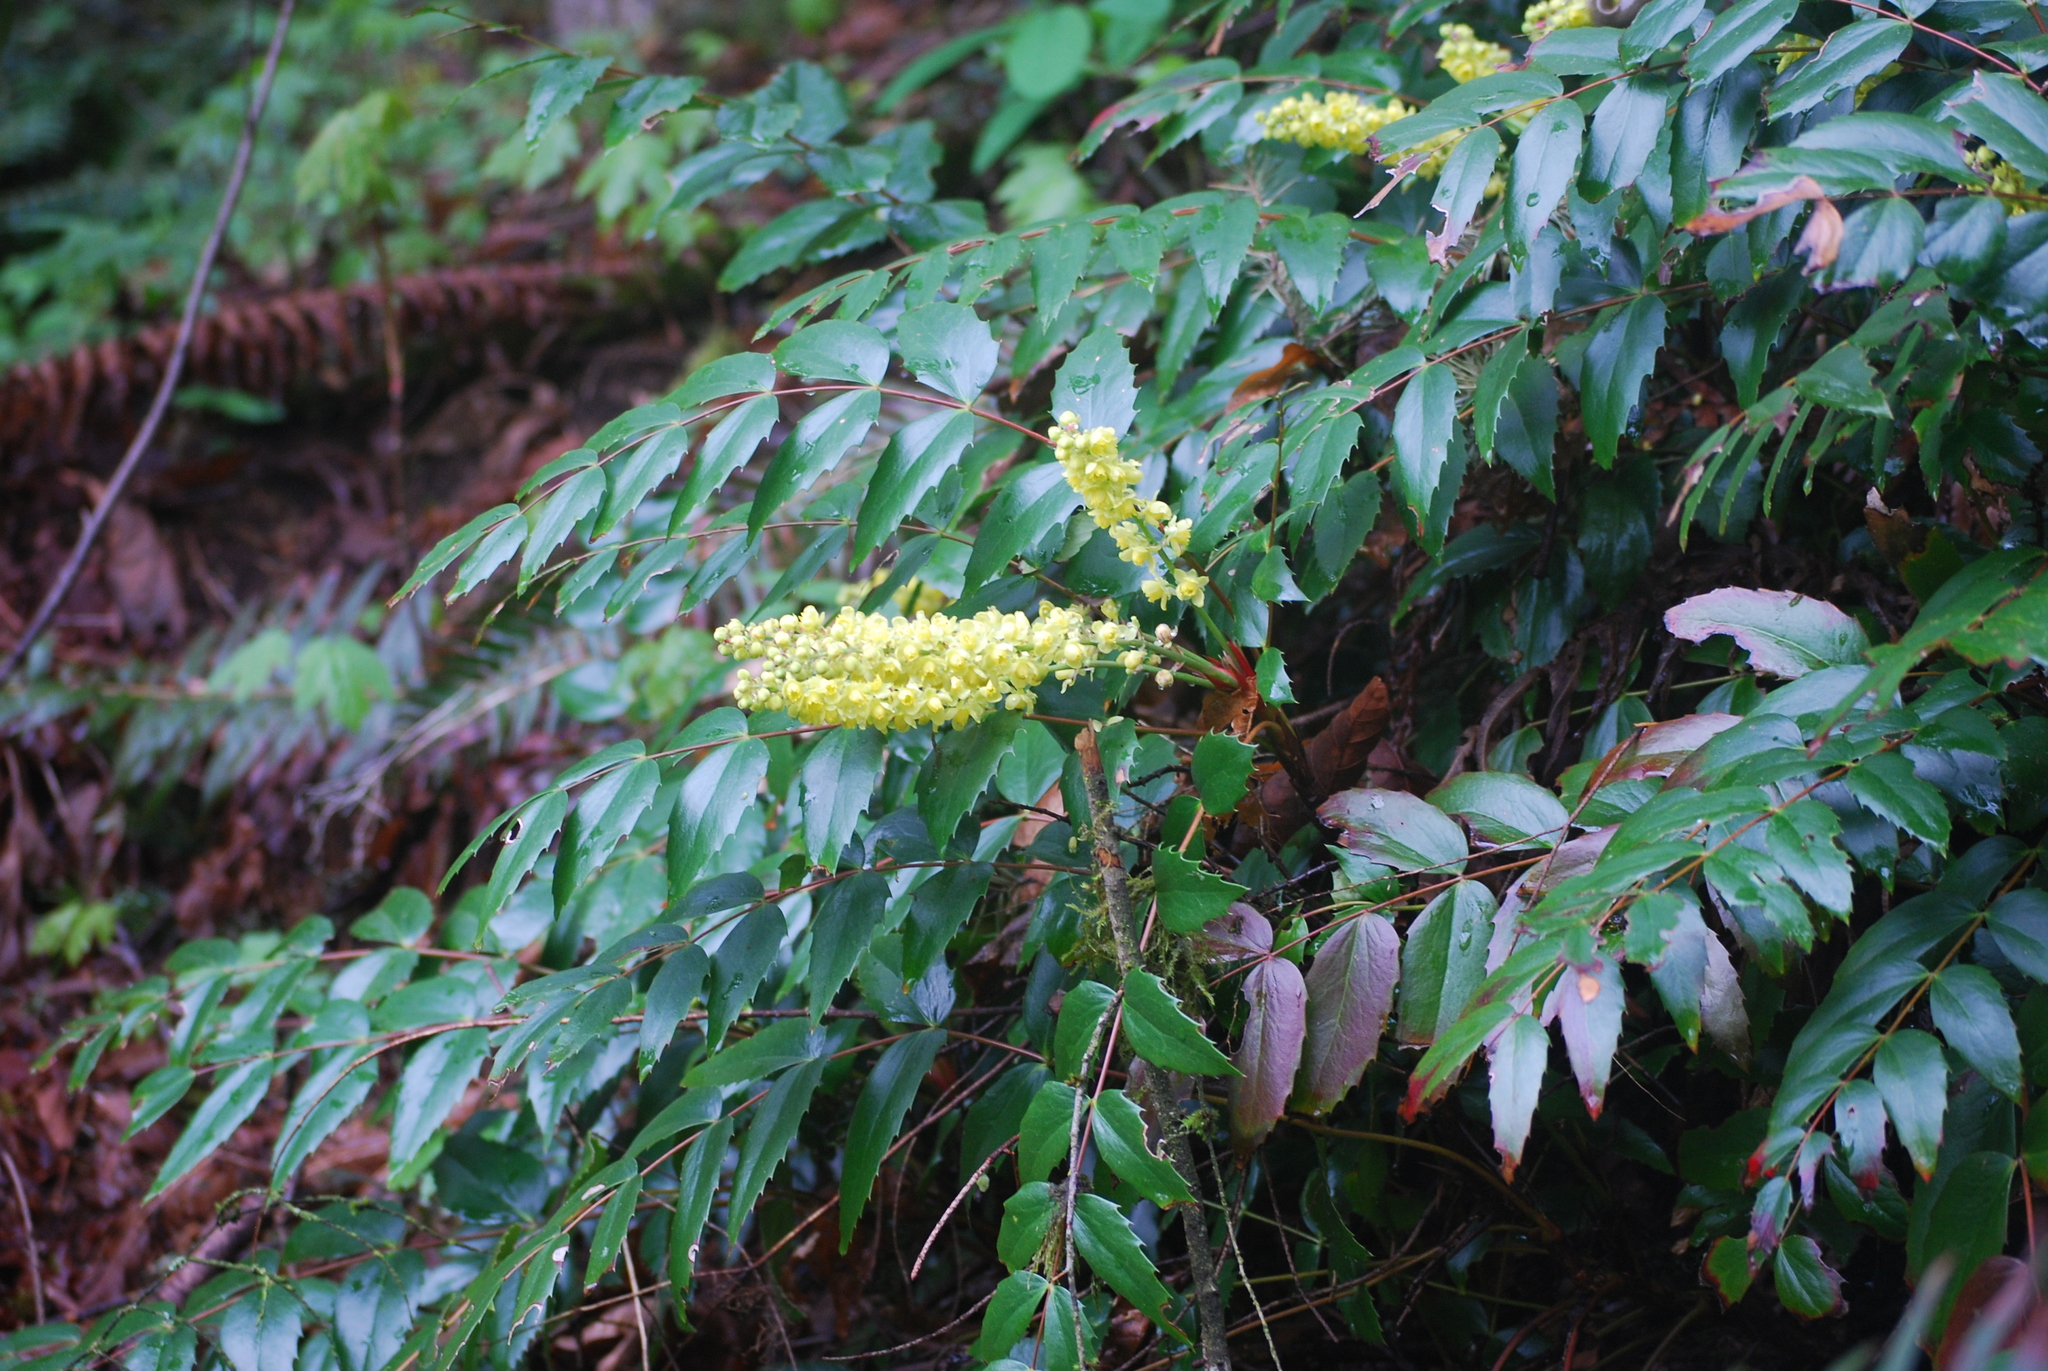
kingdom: Plantae
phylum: Tracheophyta
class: Magnoliopsida
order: Ranunculales
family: Berberidaceae
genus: Mahonia
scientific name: Mahonia nervosa
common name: Cascade oregon-grape
